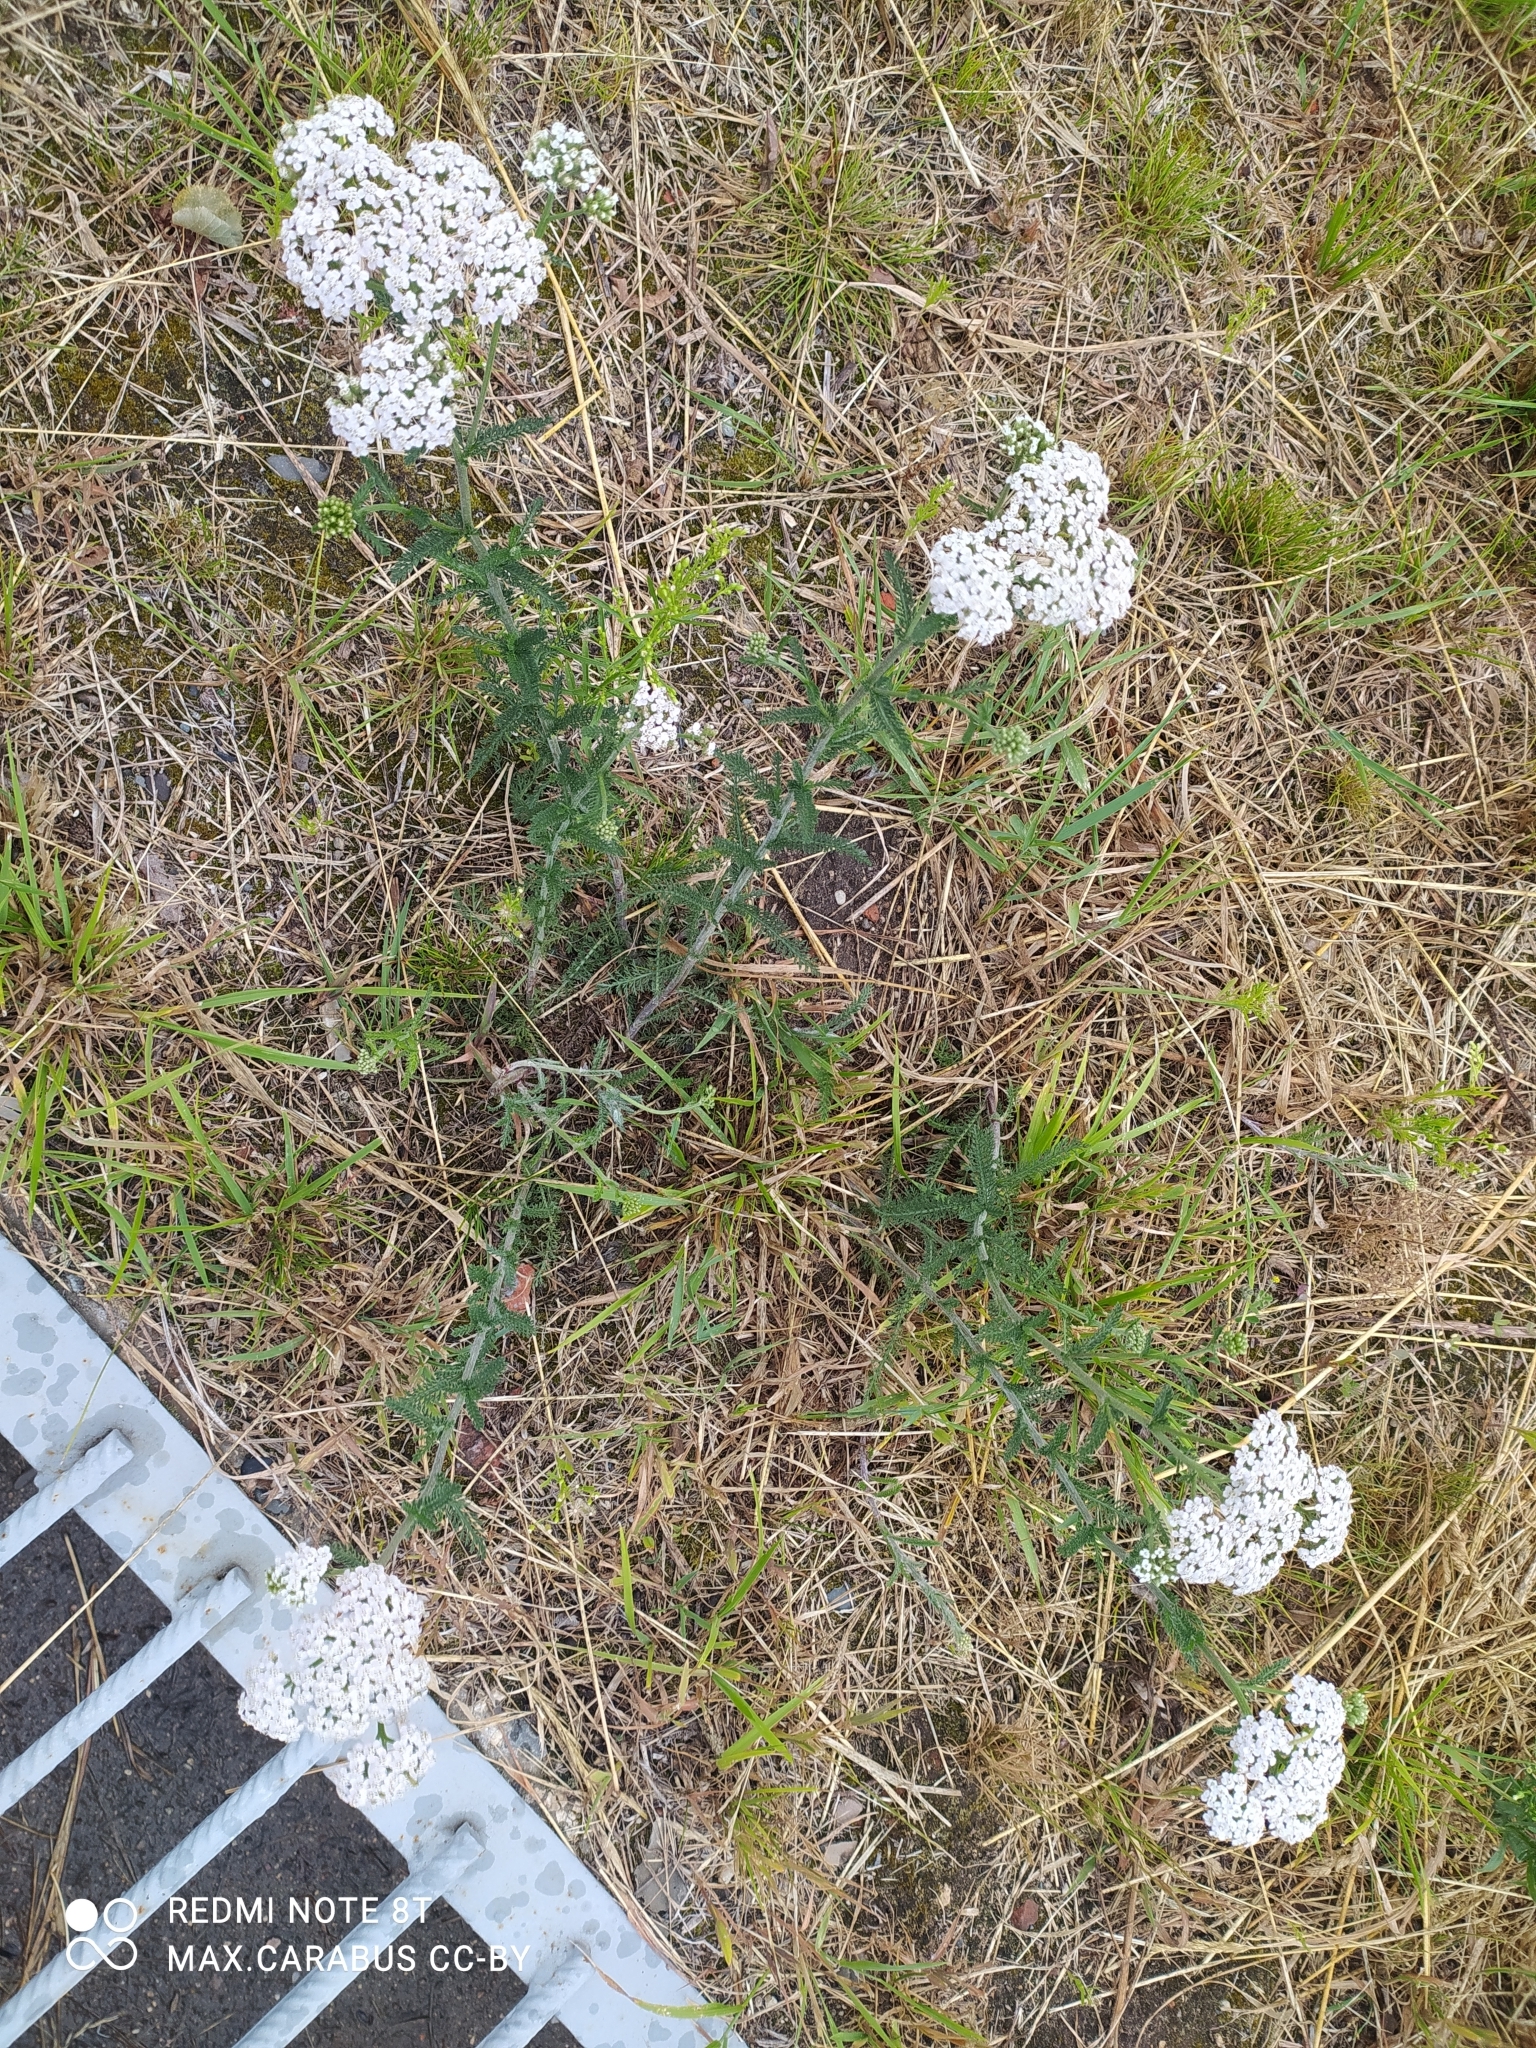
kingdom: Plantae
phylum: Tracheophyta
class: Magnoliopsida
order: Asterales
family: Asteraceae
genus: Achillea
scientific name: Achillea millefolium
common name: Yarrow
